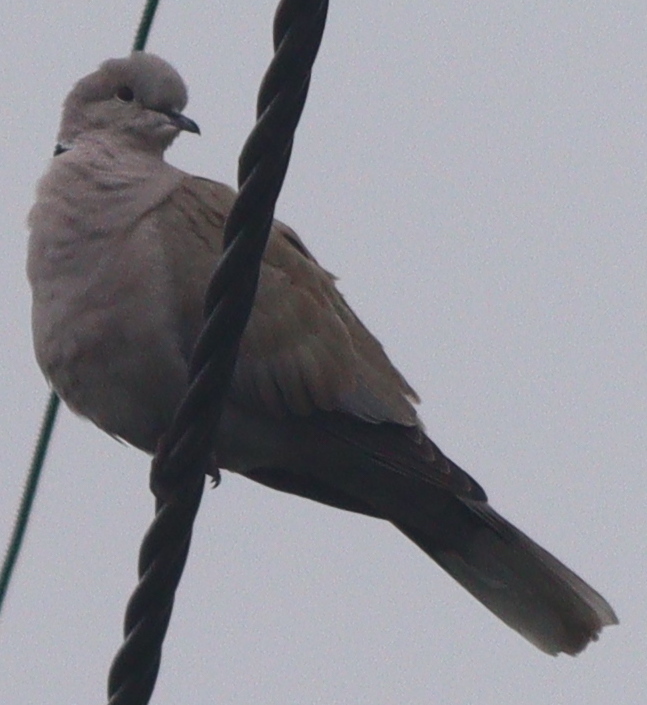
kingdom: Animalia
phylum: Chordata
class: Aves
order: Columbiformes
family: Columbidae
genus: Streptopelia
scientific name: Streptopelia decaocto
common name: Eurasian collared dove
